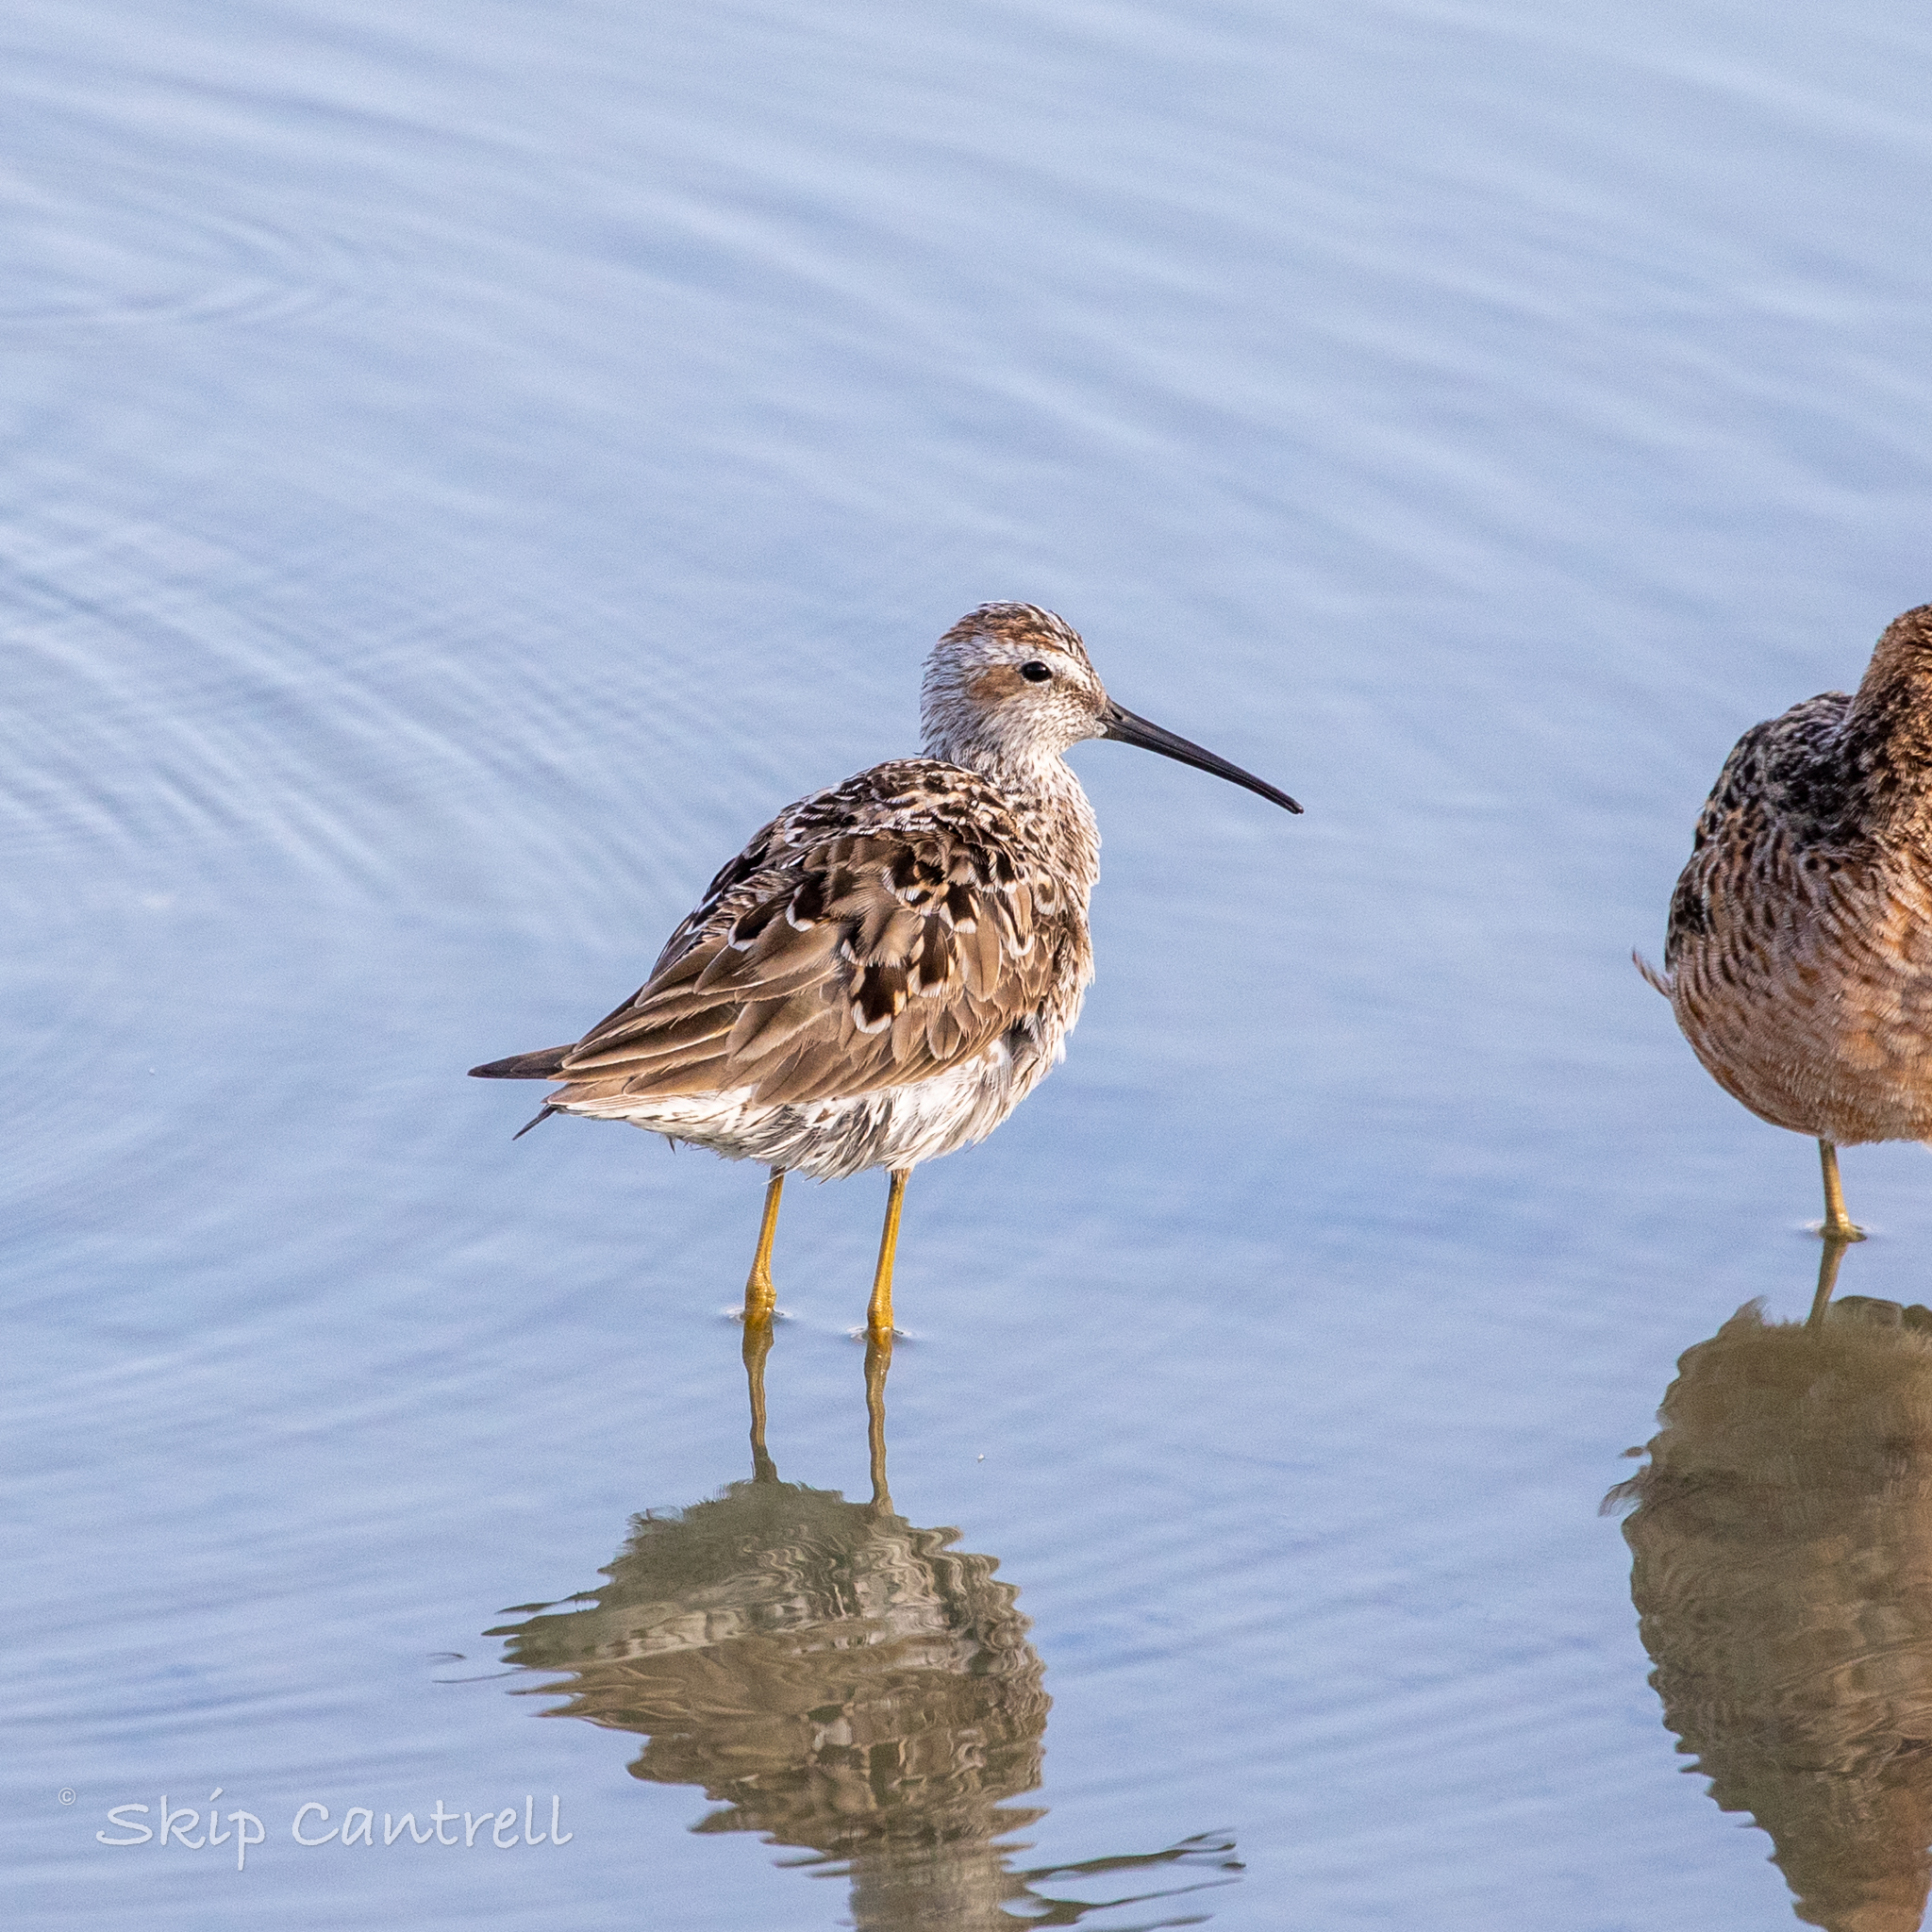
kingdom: Animalia
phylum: Chordata
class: Aves
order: Charadriiformes
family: Scolopacidae
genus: Calidris
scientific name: Calidris himantopus
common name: Stilt sandpiper
